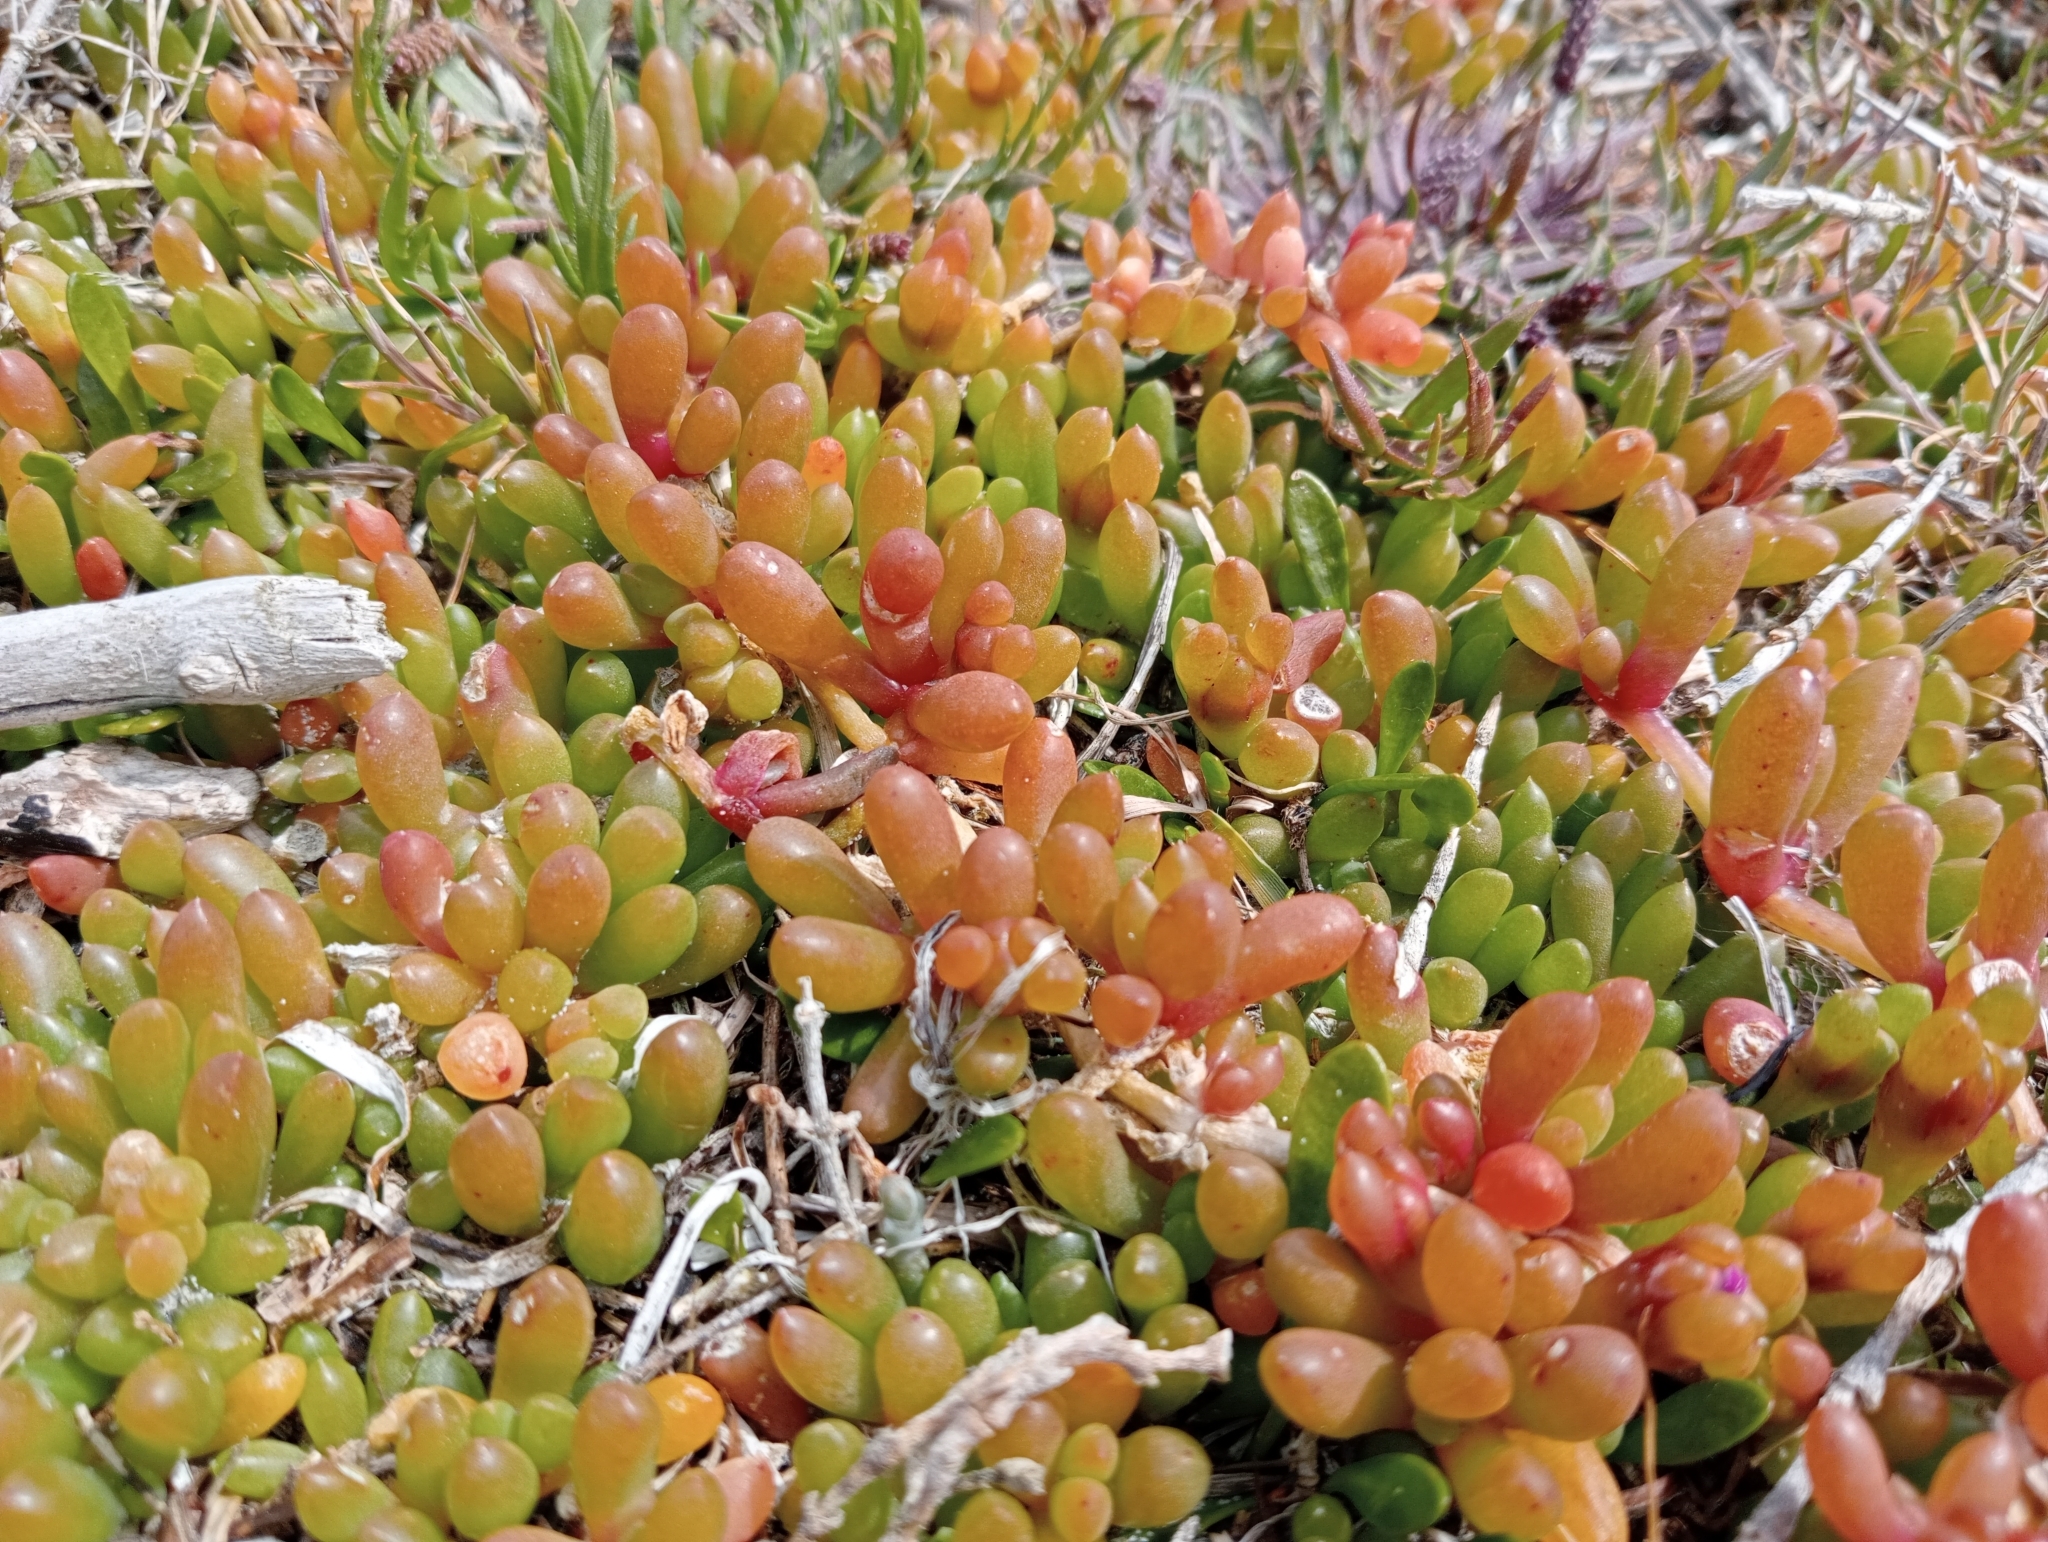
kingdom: Plantae
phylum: Tracheophyta
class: Magnoliopsida
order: Caryophyllales
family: Aizoaceae
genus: Disphyma
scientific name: Disphyma clavellatum
